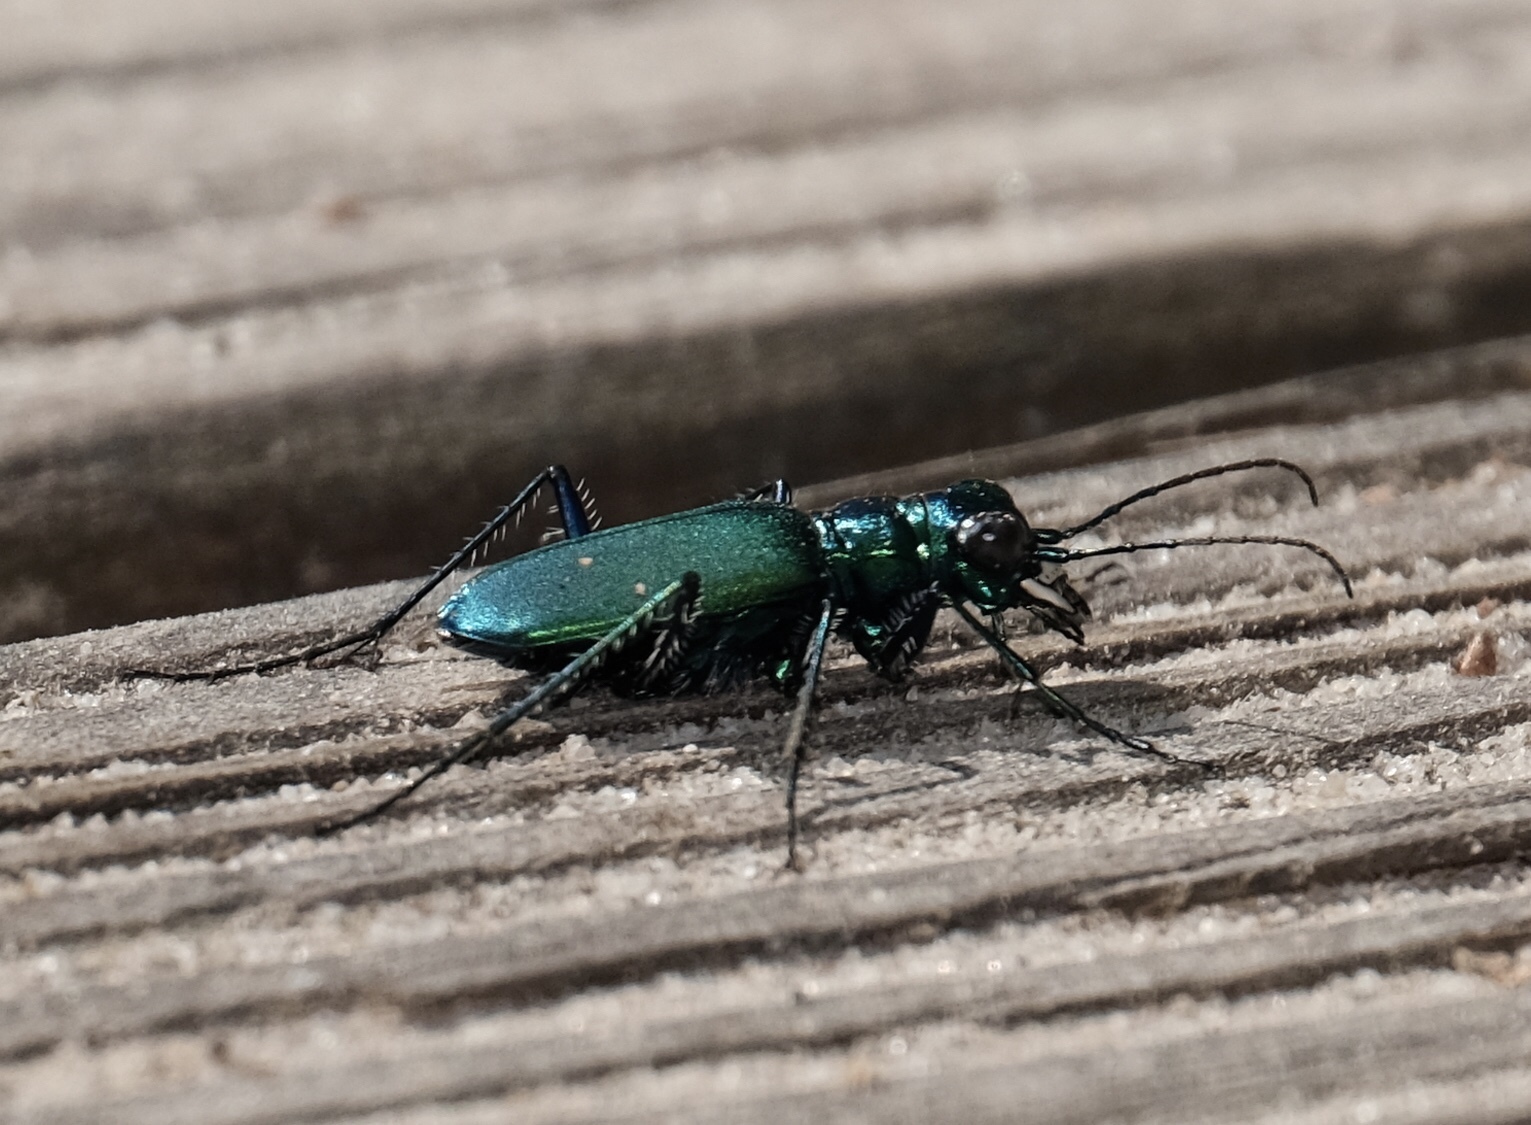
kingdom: Animalia
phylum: Arthropoda
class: Insecta
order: Coleoptera
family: Carabidae
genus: Cicindela
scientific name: Cicindela sexguttata
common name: Six-spotted tiger beetle
